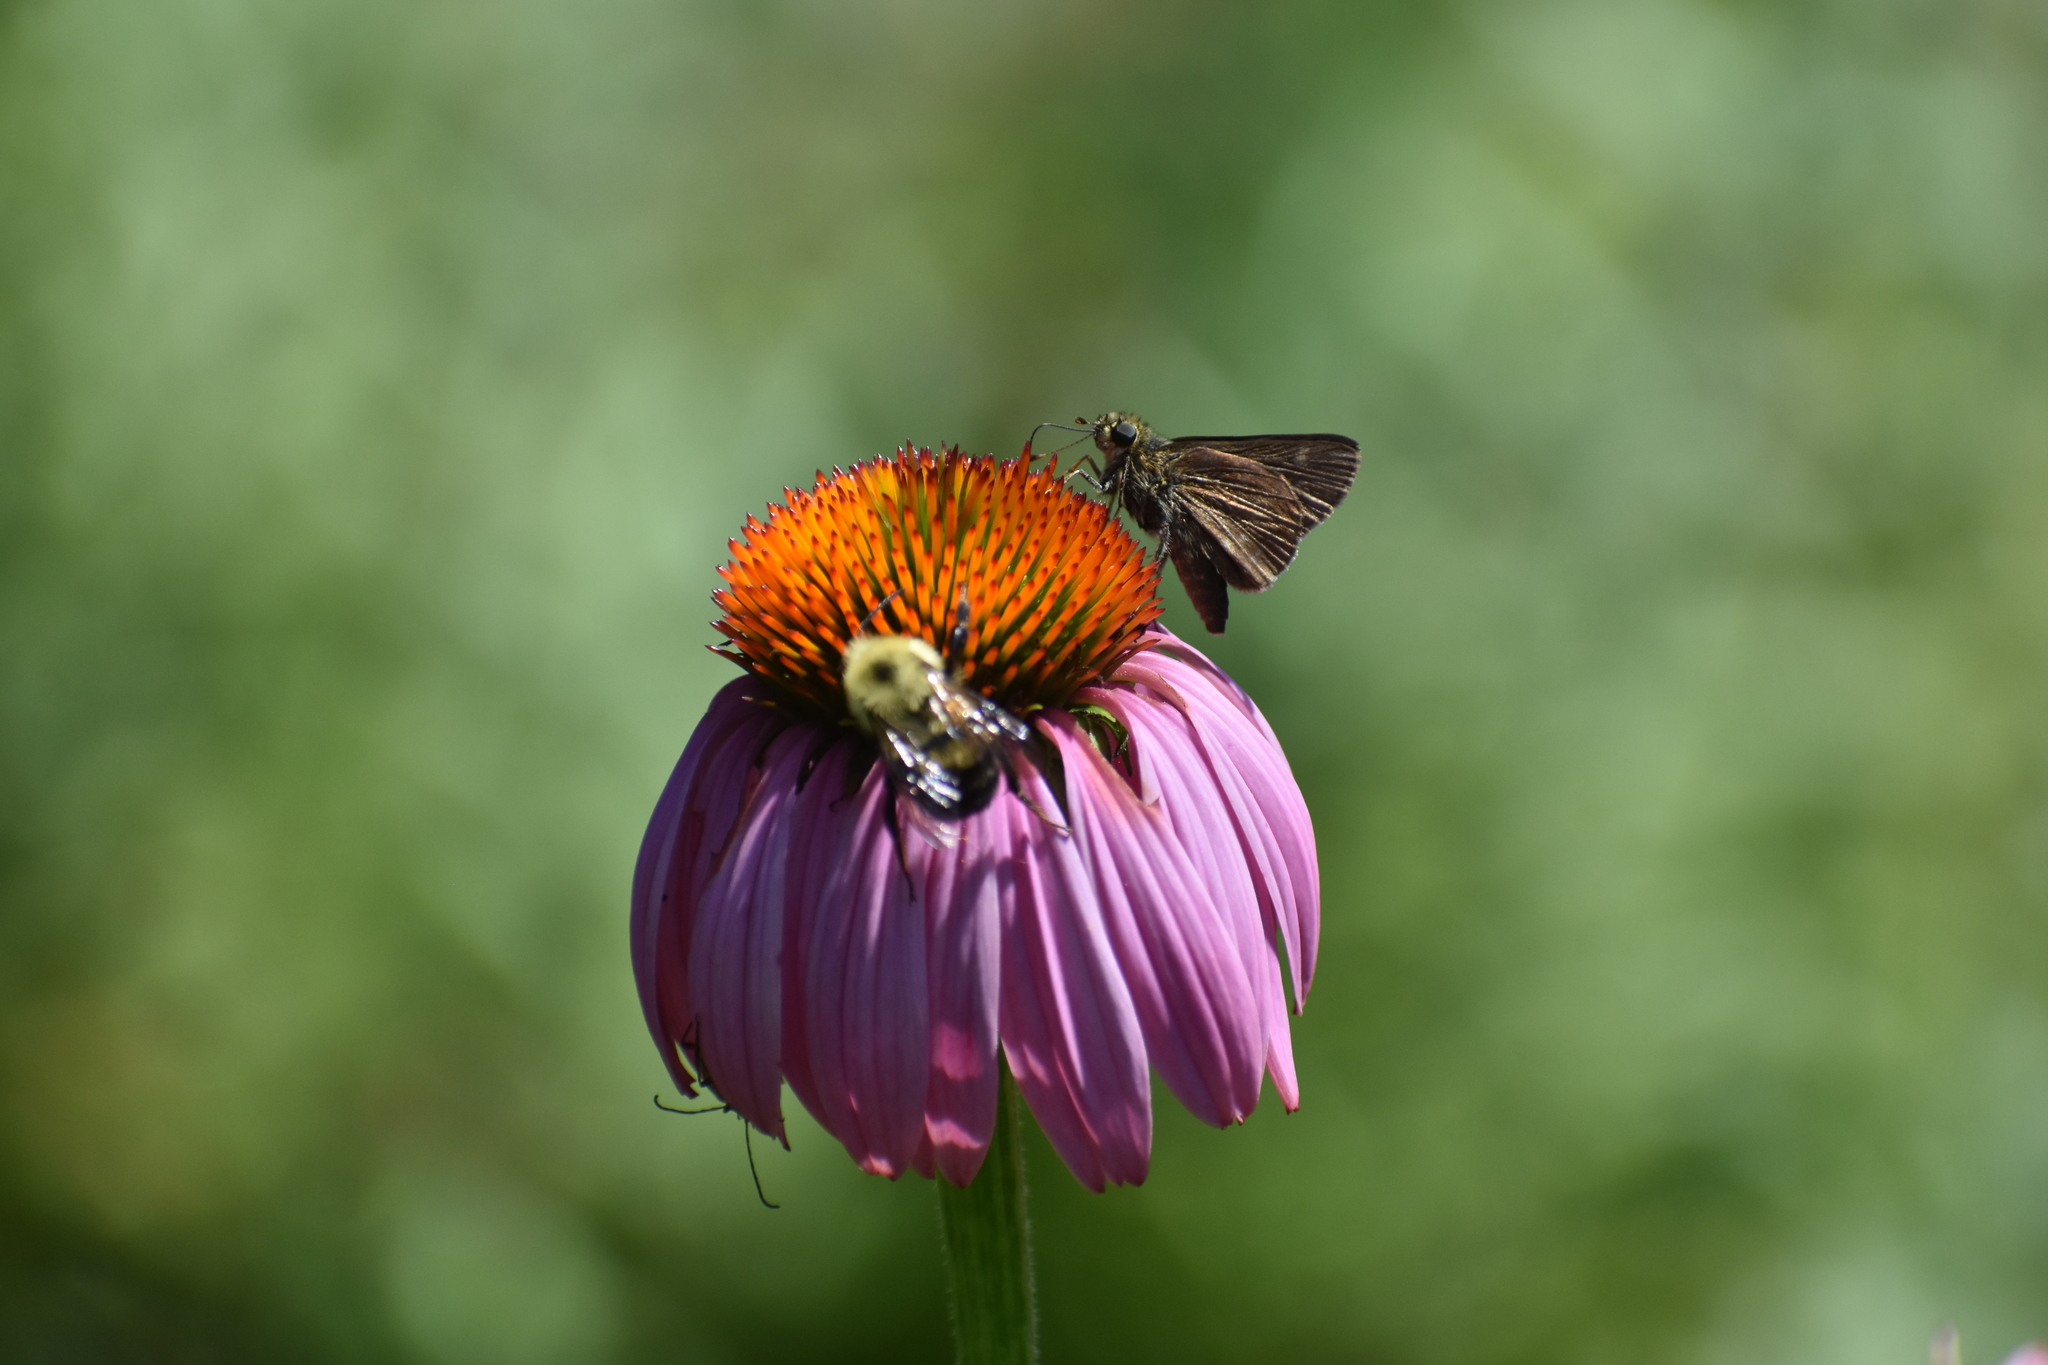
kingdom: Animalia
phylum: Arthropoda
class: Insecta
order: Hymenoptera
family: Apidae
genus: Bombus
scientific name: Bombus bimaculatus
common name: Two-spotted bumble bee
